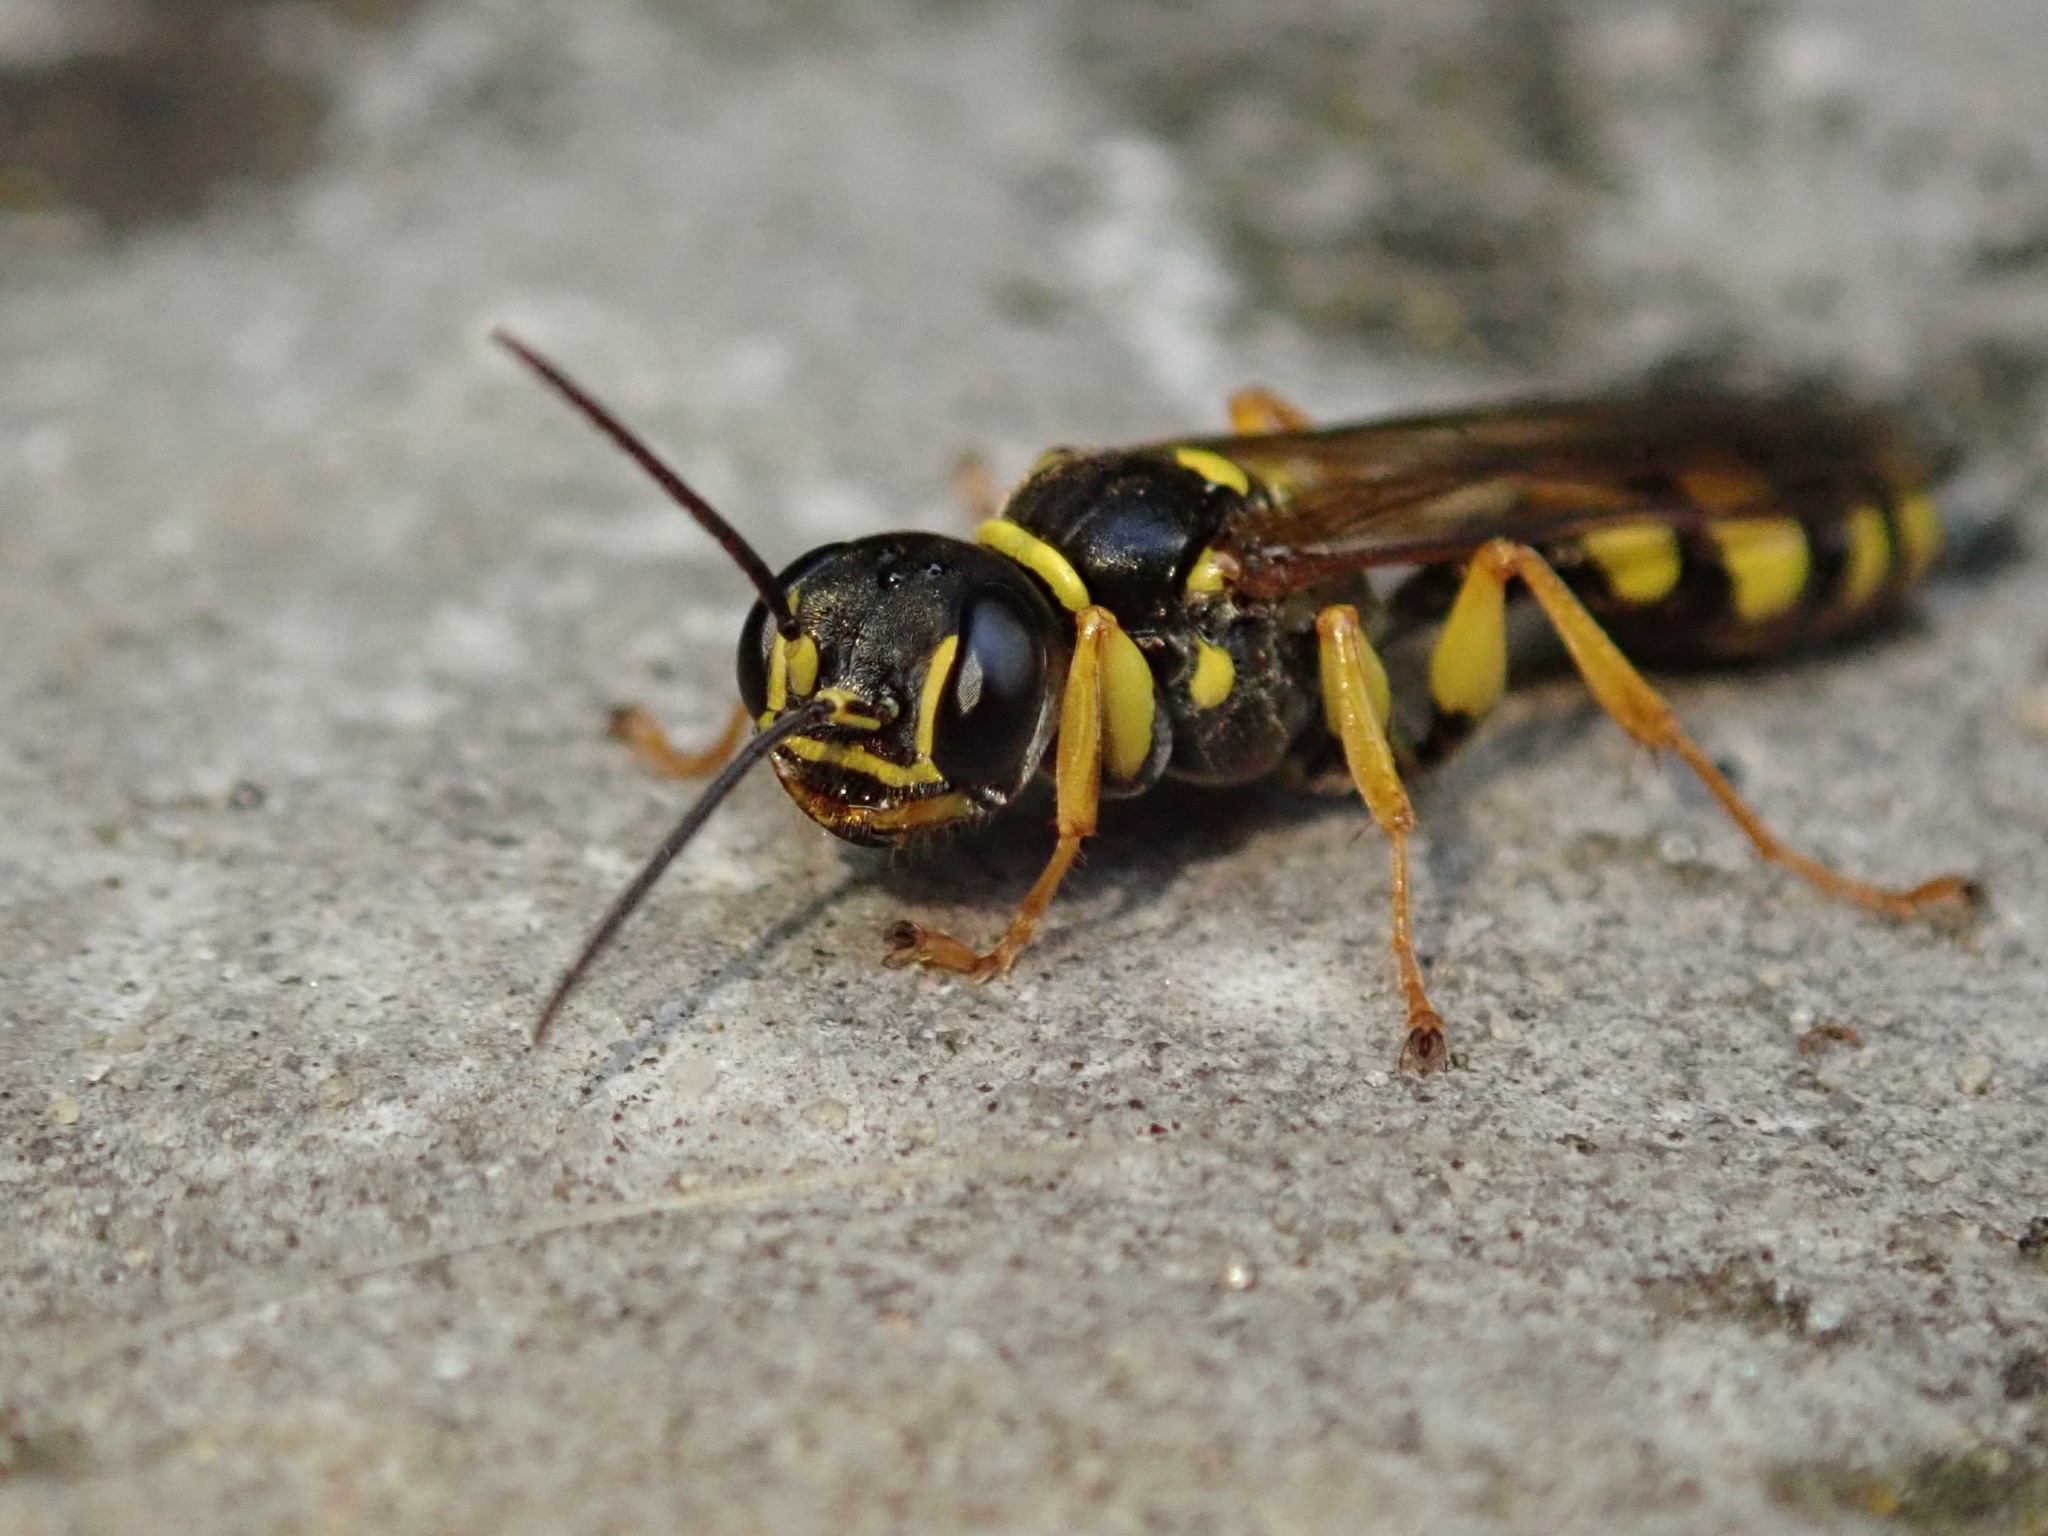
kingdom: Animalia
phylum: Arthropoda
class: Insecta
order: Hymenoptera
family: Crabronidae
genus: Mellinus
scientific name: Mellinus arvensis
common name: Field digger wasp
